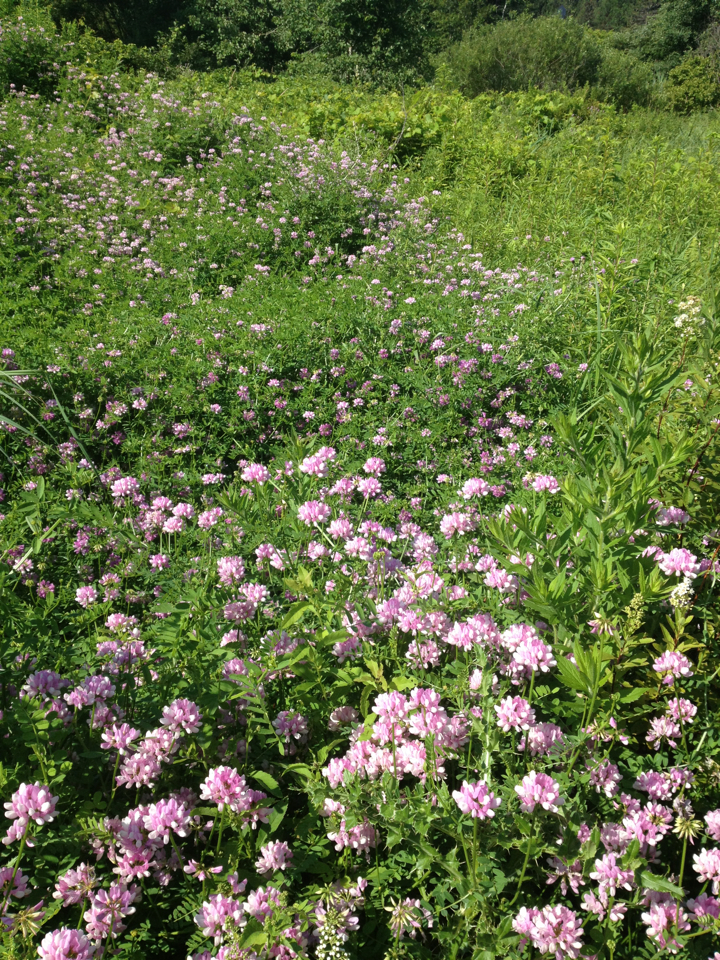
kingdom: Plantae
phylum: Tracheophyta
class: Magnoliopsida
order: Fabales
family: Fabaceae
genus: Coronilla
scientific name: Coronilla varia
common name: Crownvetch
